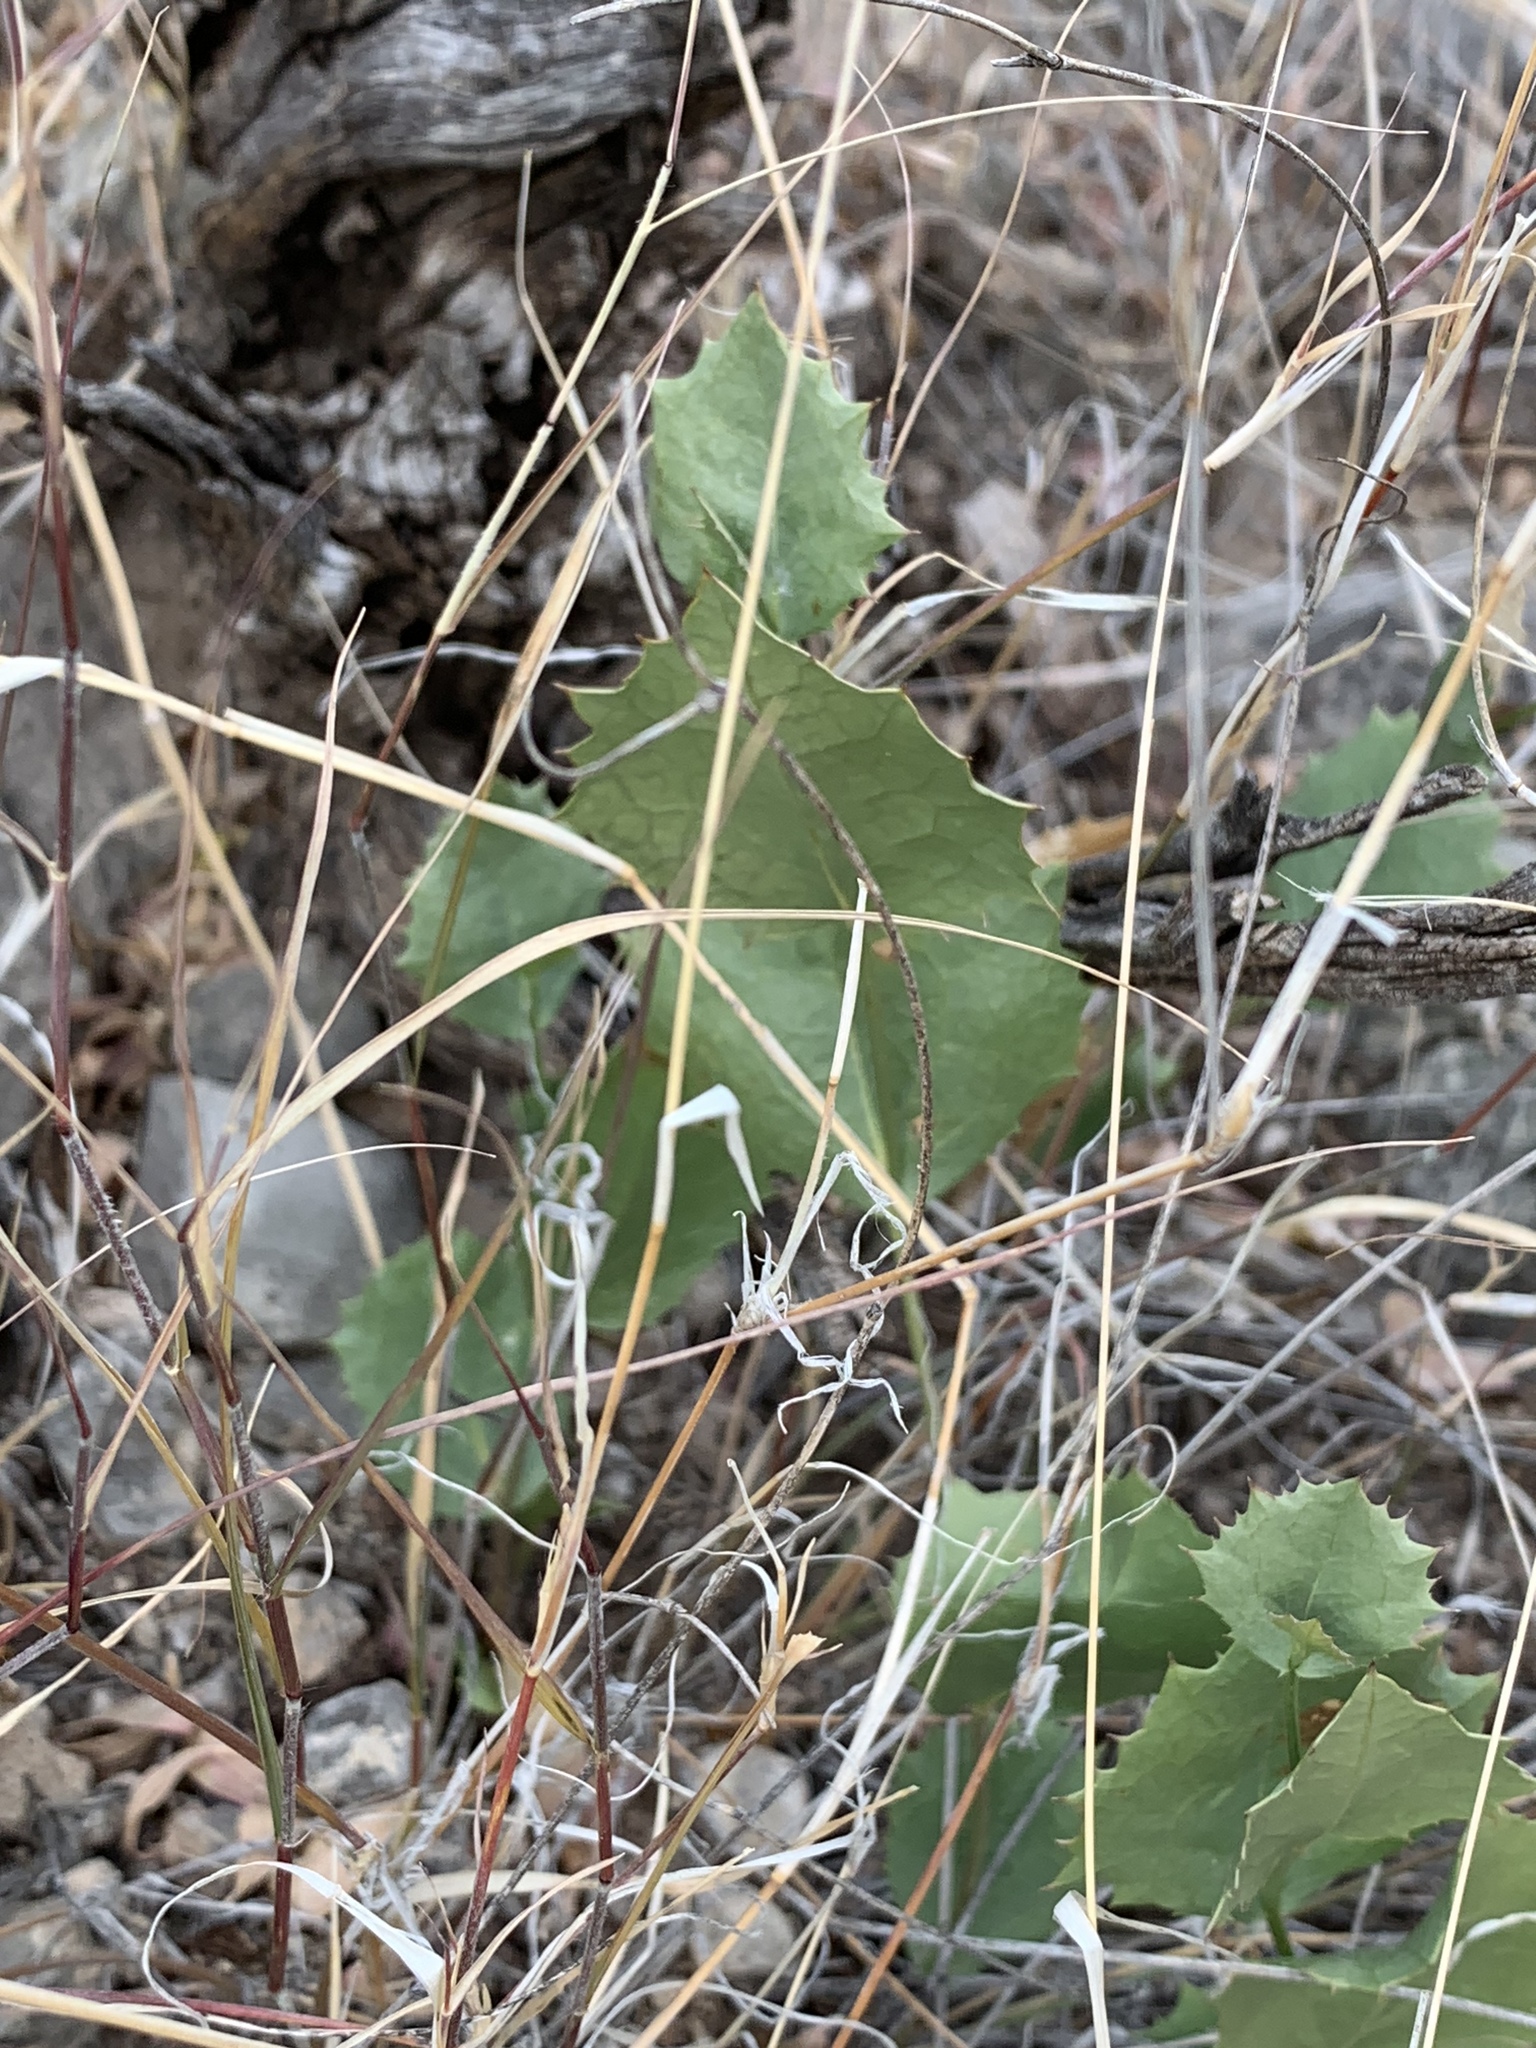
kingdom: Plantae
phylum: Tracheophyta
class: Magnoliopsida
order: Asterales
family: Asteraceae
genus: Acourtia
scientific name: Acourtia nana
